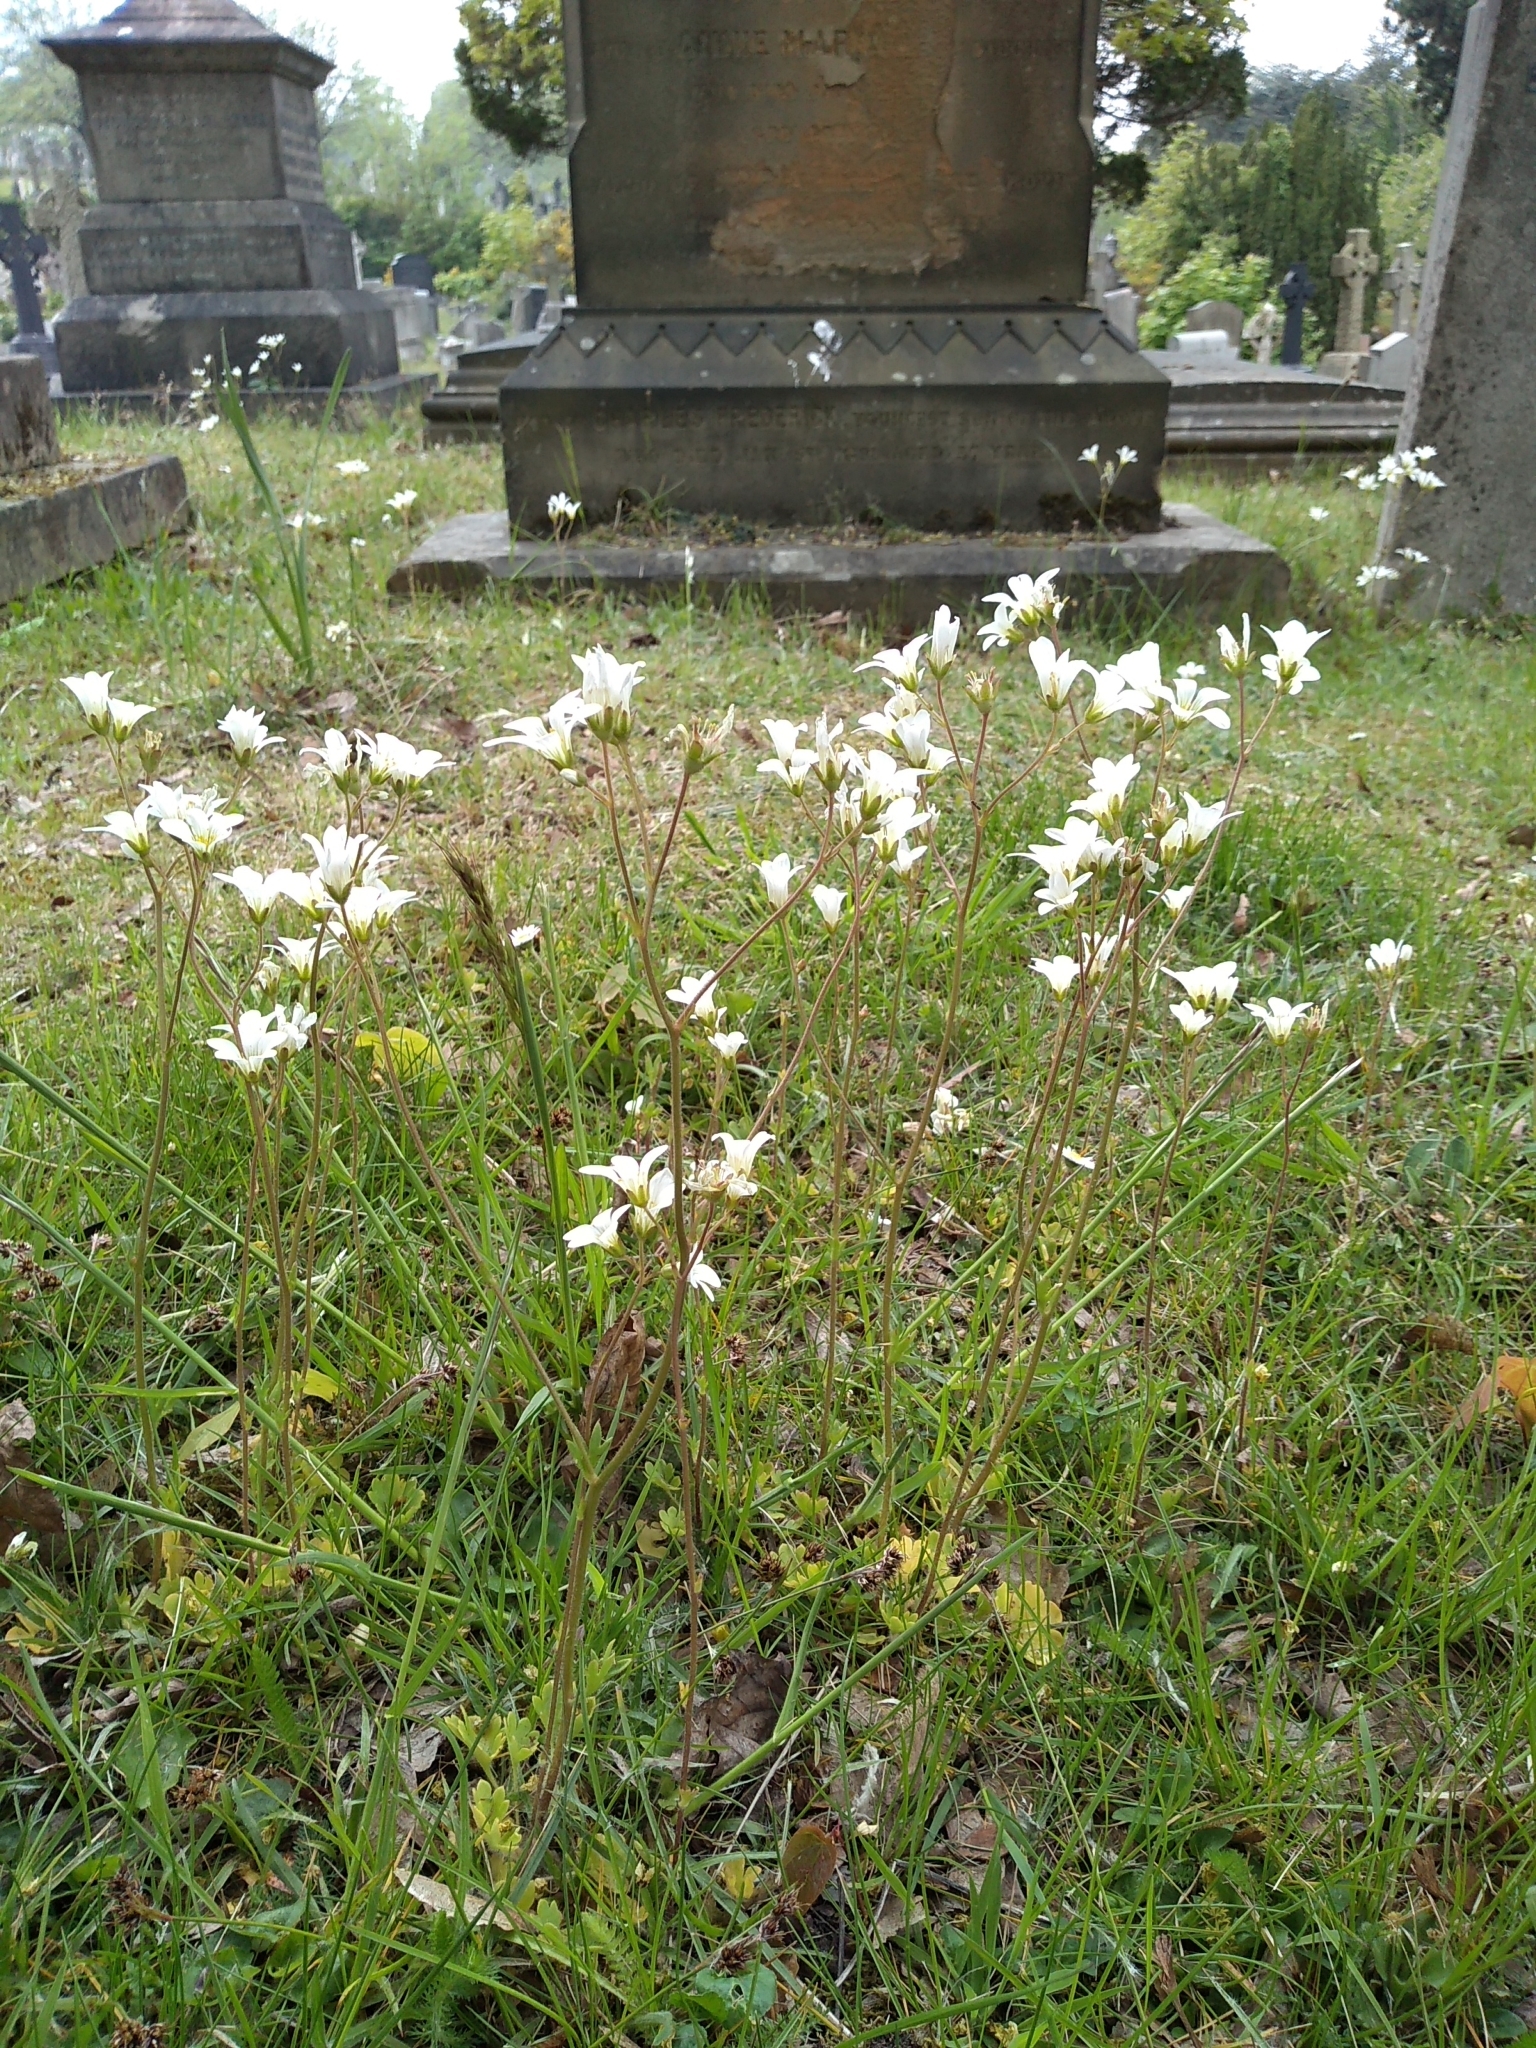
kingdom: Plantae
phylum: Tracheophyta
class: Magnoliopsida
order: Saxifragales
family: Saxifragaceae
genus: Saxifraga
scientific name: Saxifraga granulata
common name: Meadow saxifrage
